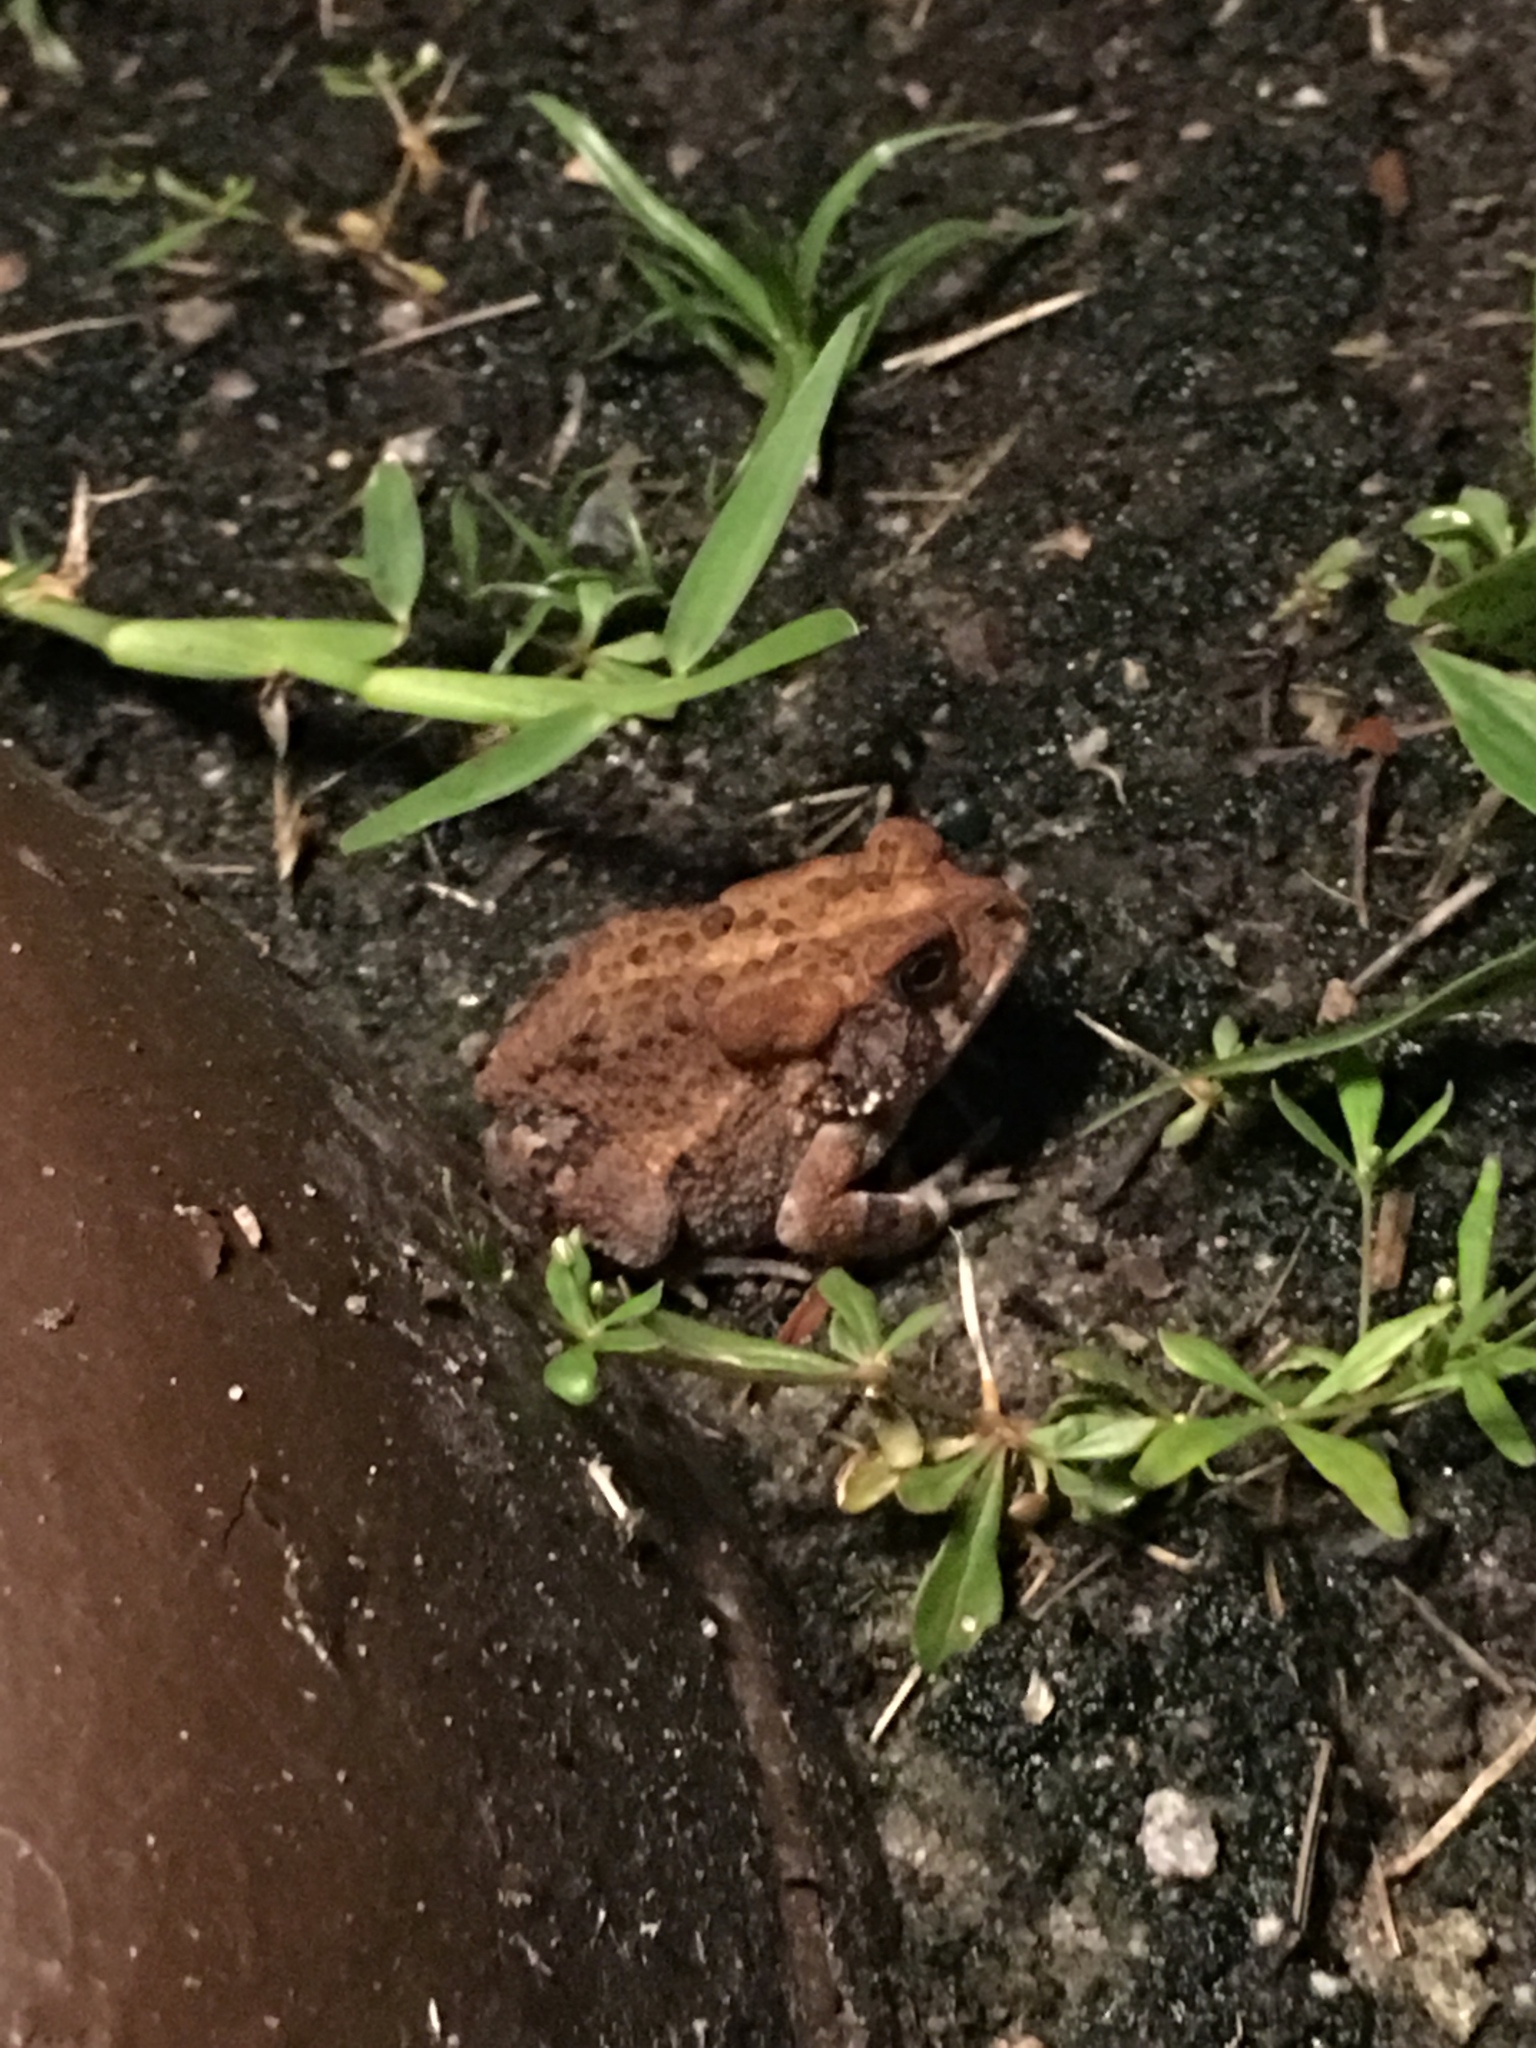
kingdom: Animalia
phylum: Chordata
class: Amphibia
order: Anura
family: Bufonidae
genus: Anaxyrus
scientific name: Anaxyrus terrestris
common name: Southern toad
